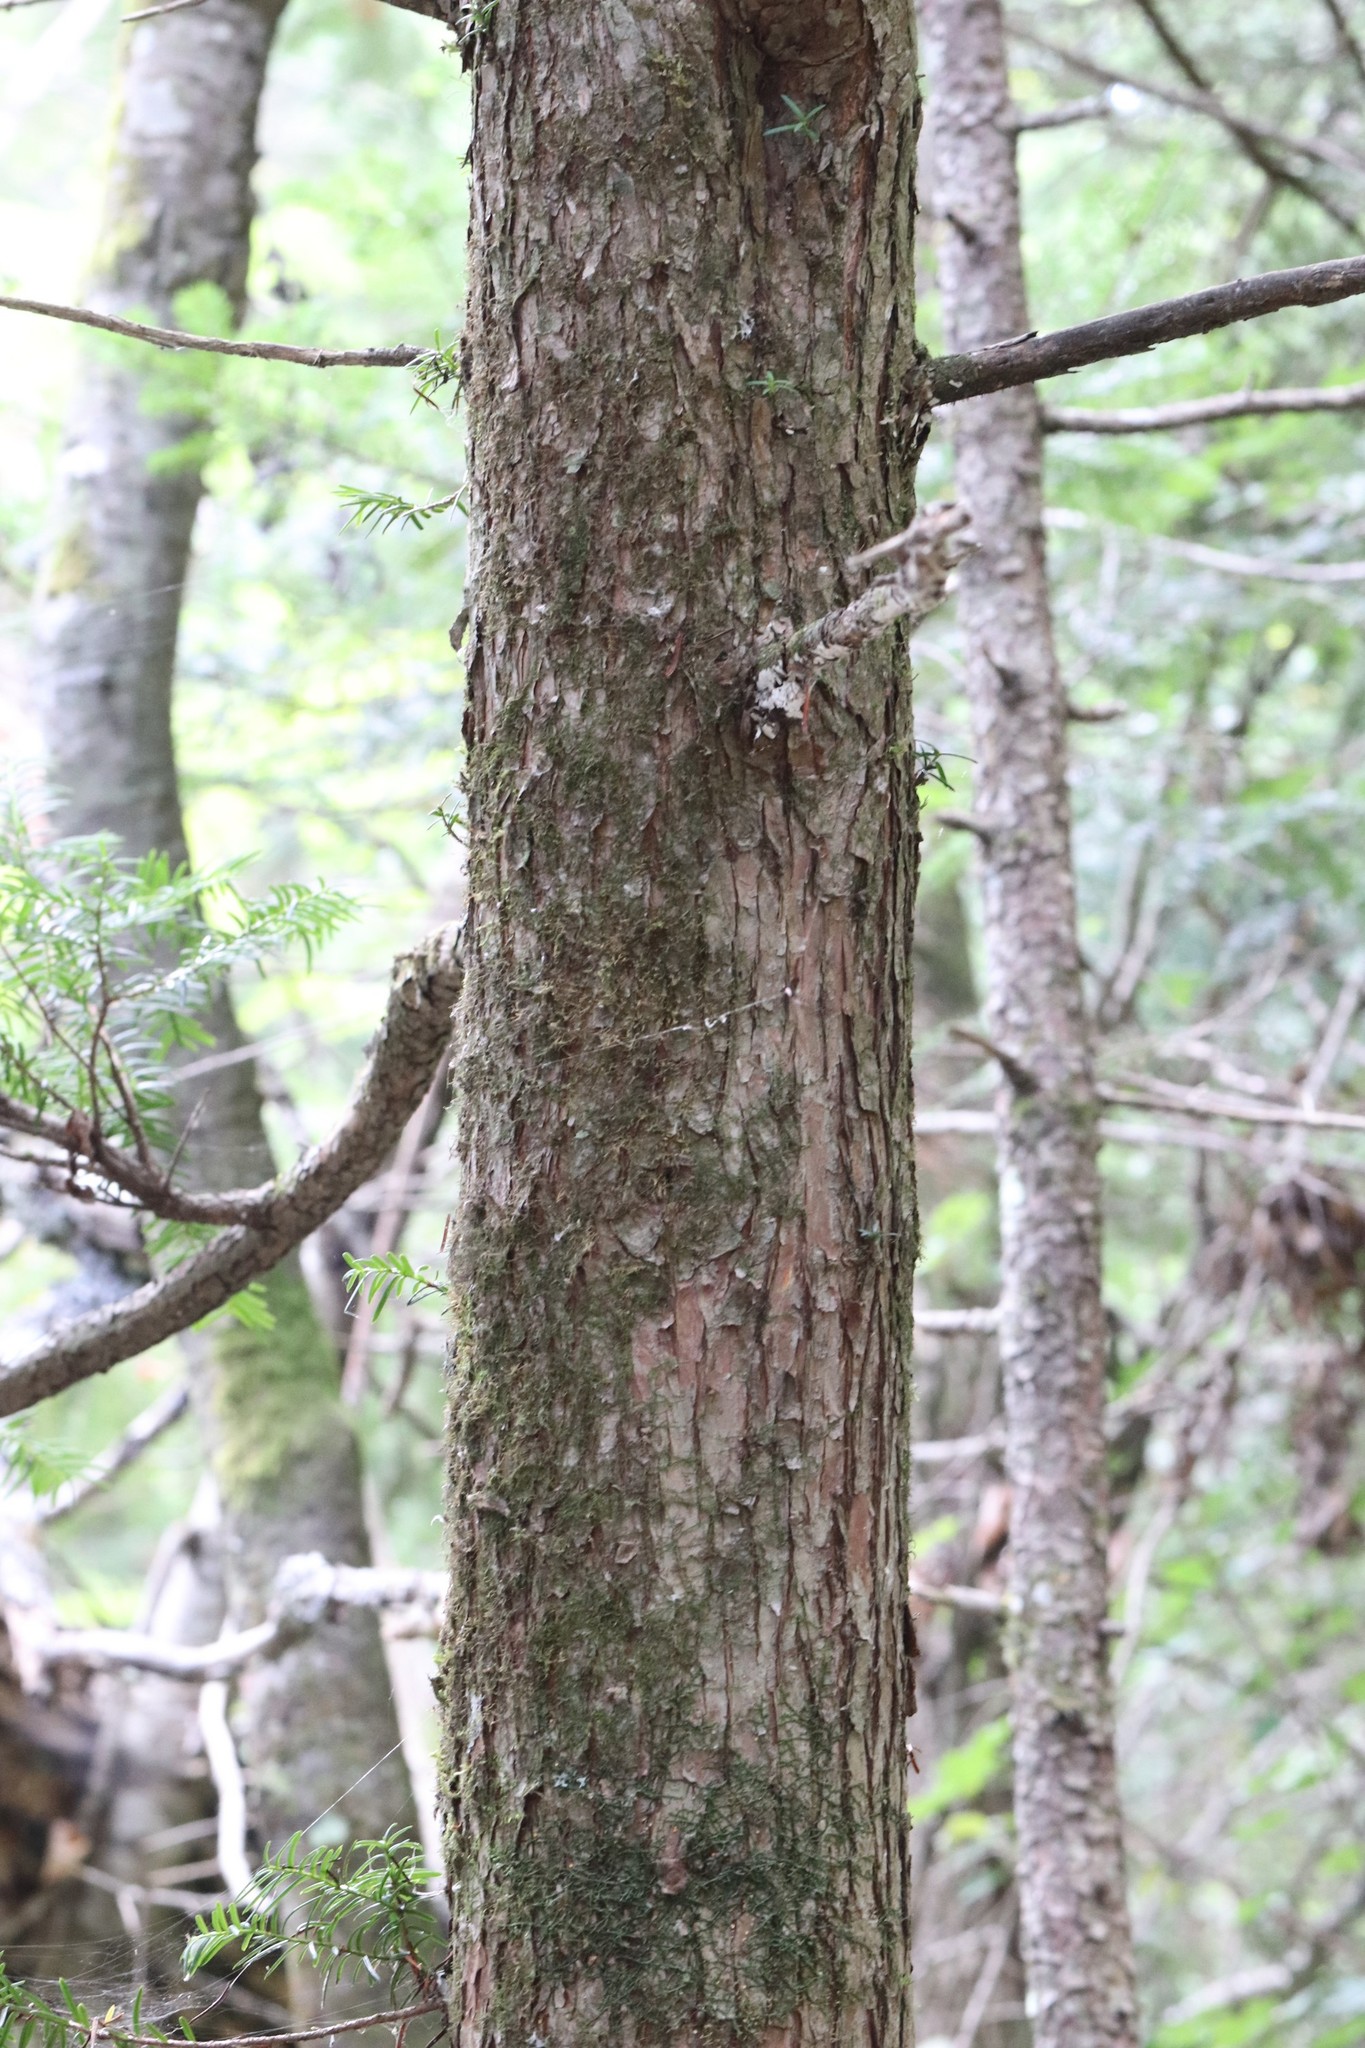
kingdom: Plantae
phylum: Tracheophyta
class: Pinopsida
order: Pinales
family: Taxaceae
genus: Taxus
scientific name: Taxus cuspidata
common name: Japanese yew
